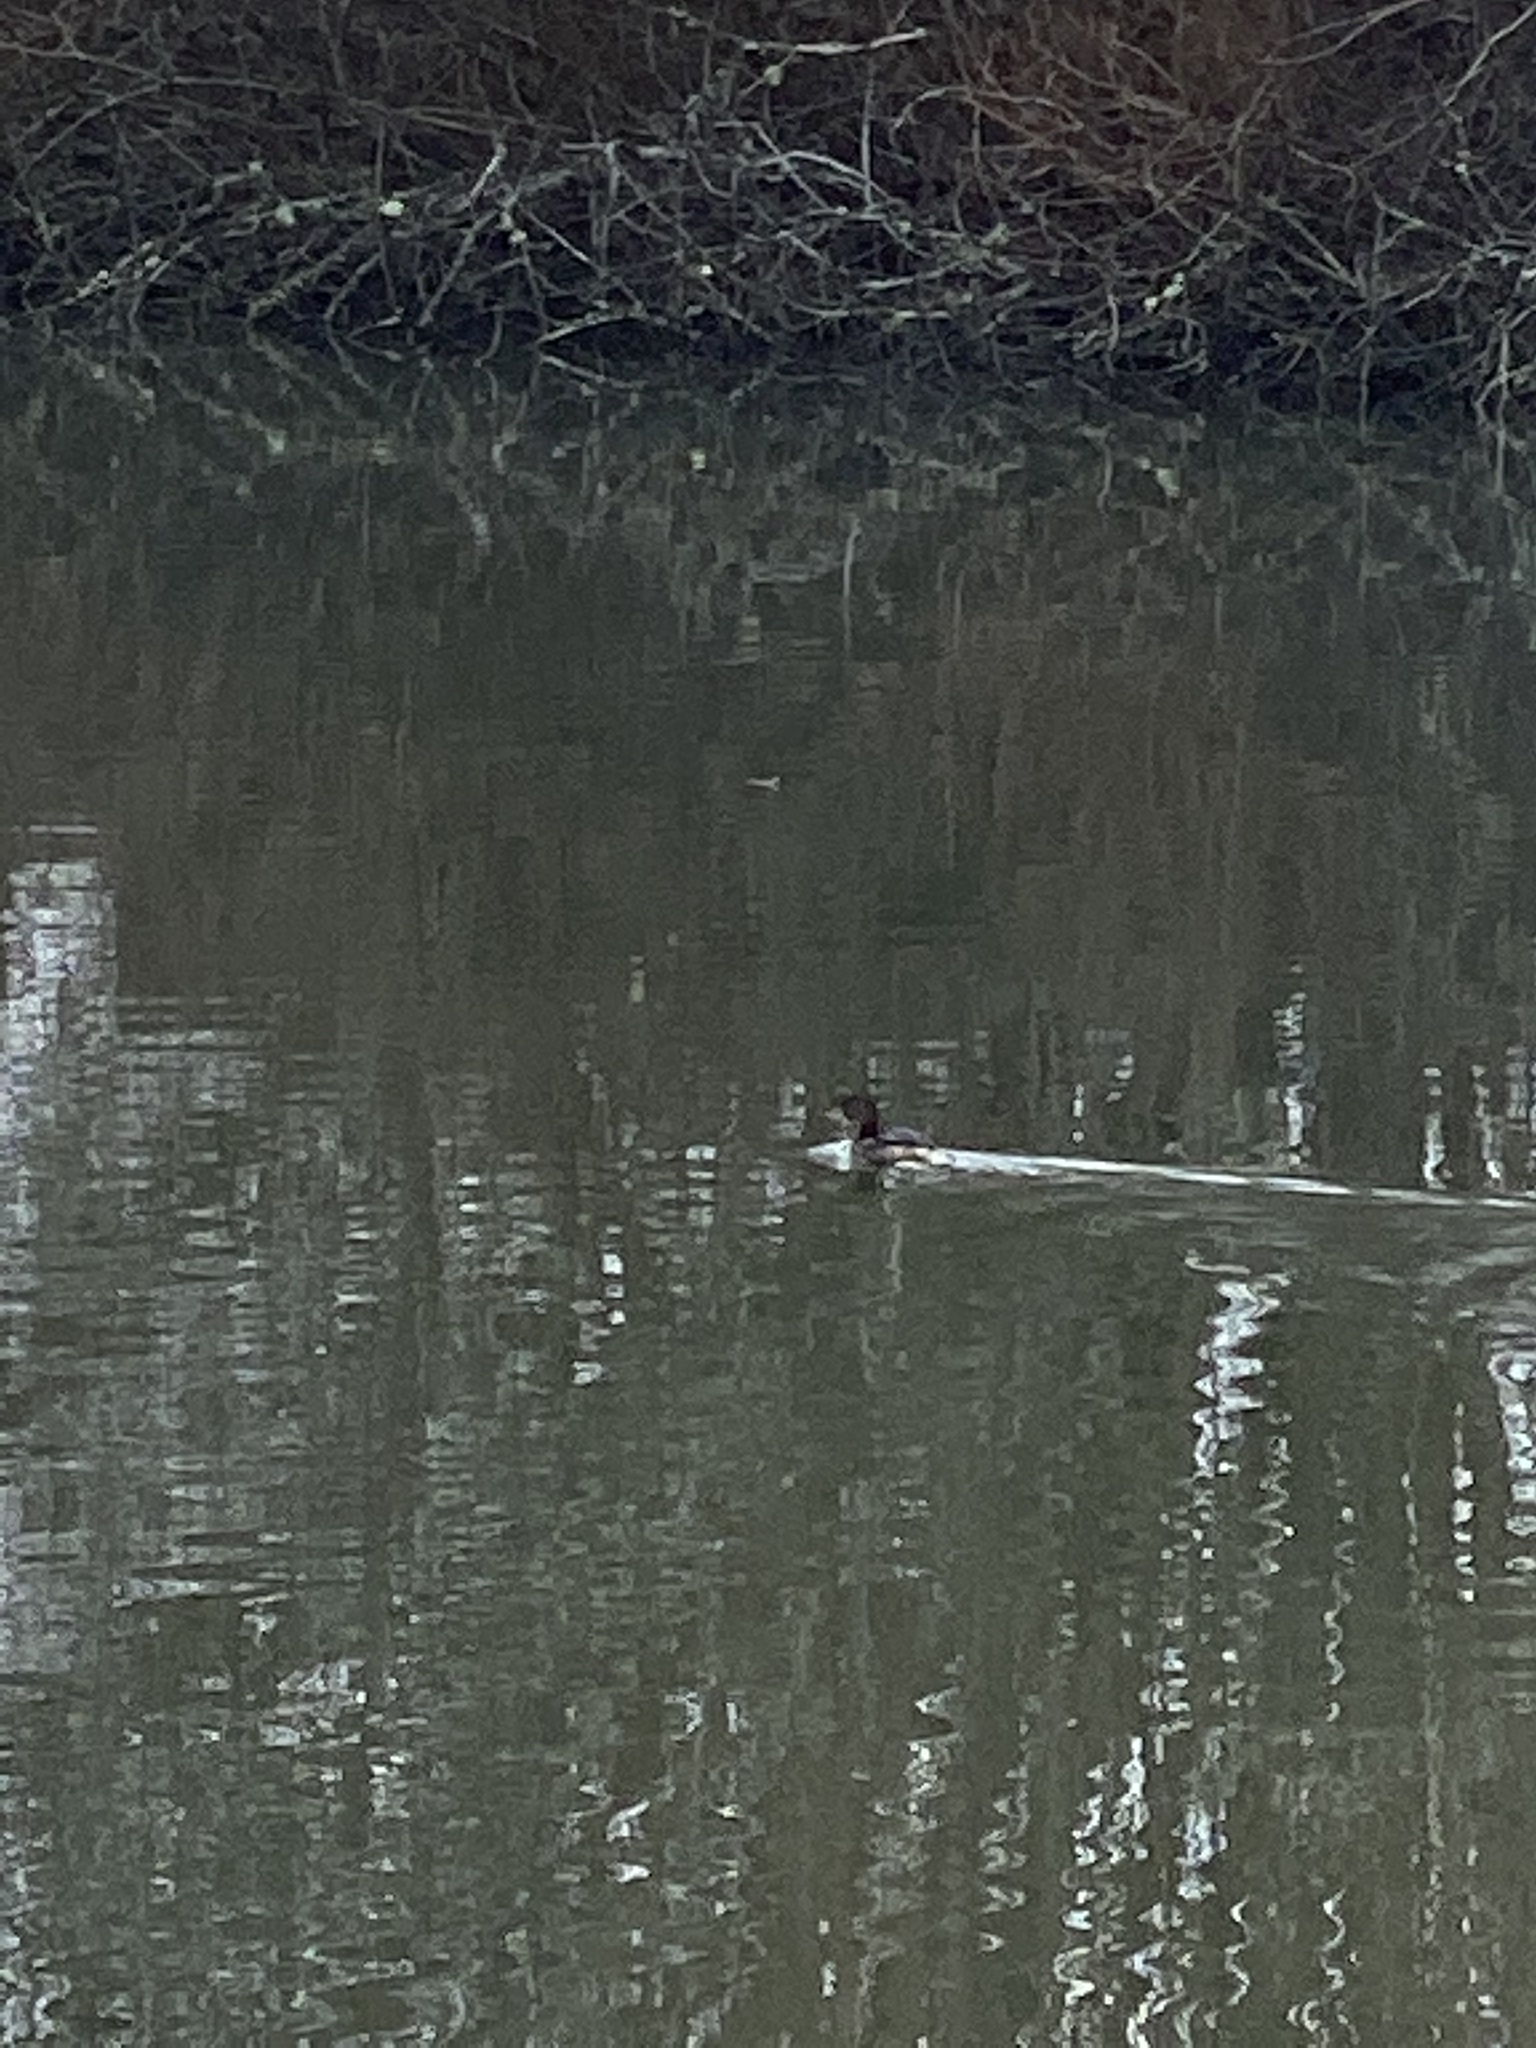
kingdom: Animalia
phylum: Chordata
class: Aves
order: Podicipediformes
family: Podicipedidae
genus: Podilymbus
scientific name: Podilymbus podiceps
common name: Pied-billed grebe
